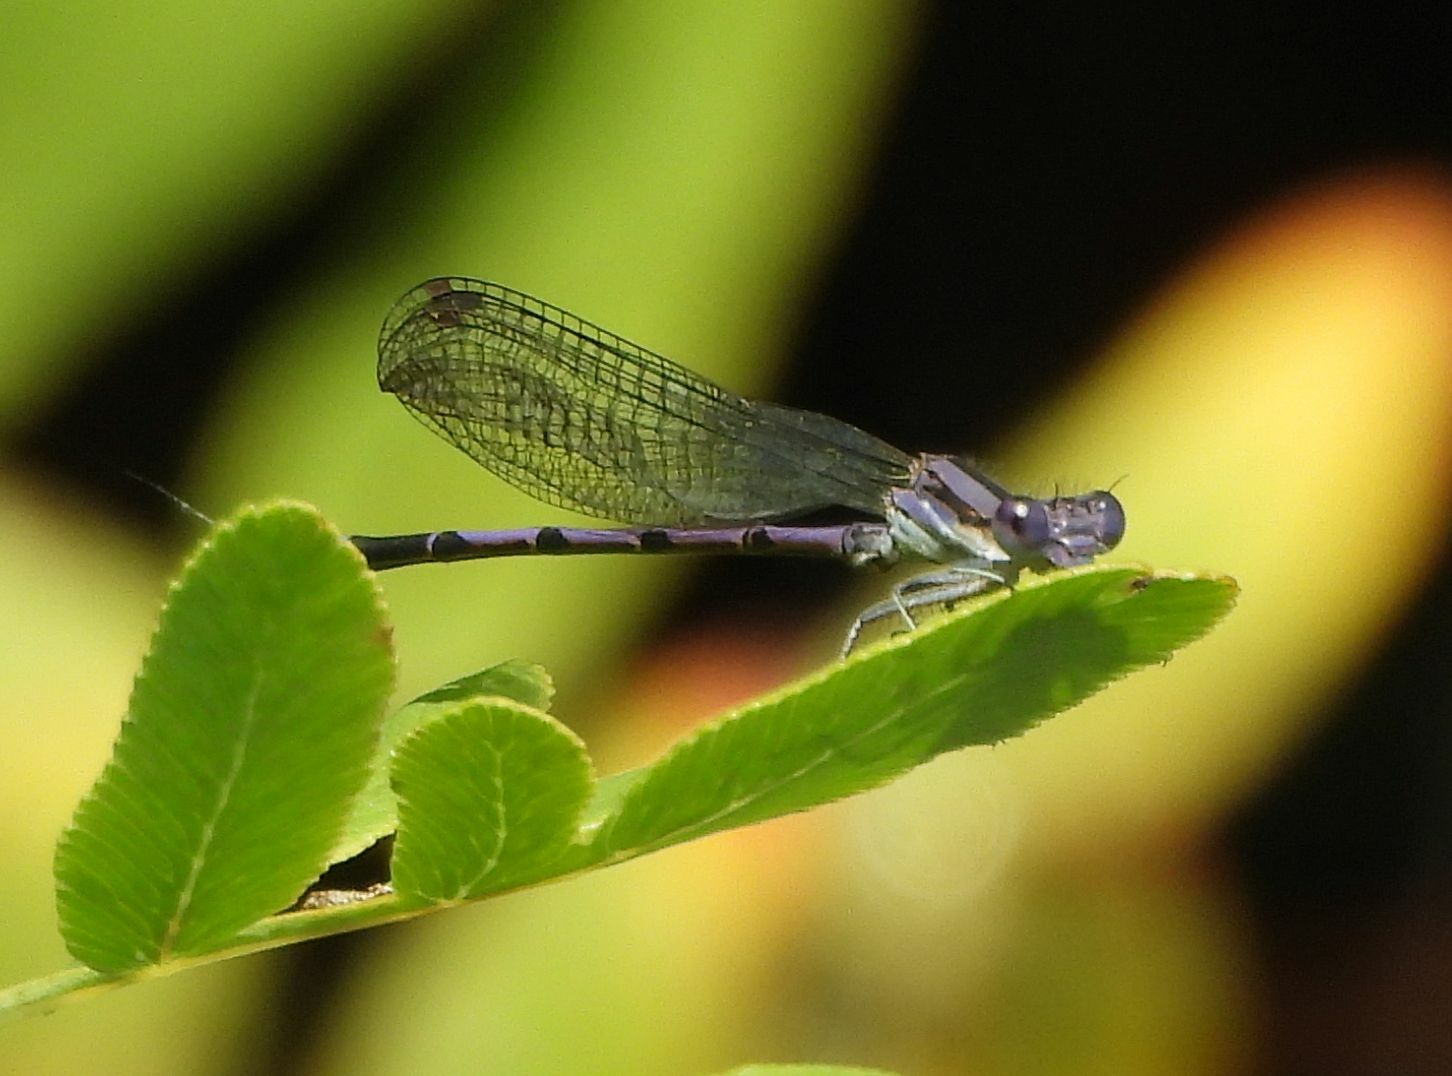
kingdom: Animalia
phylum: Arthropoda
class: Insecta
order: Odonata
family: Coenagrionidae
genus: Argia
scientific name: Argia fumipennis
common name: Variable dancer
